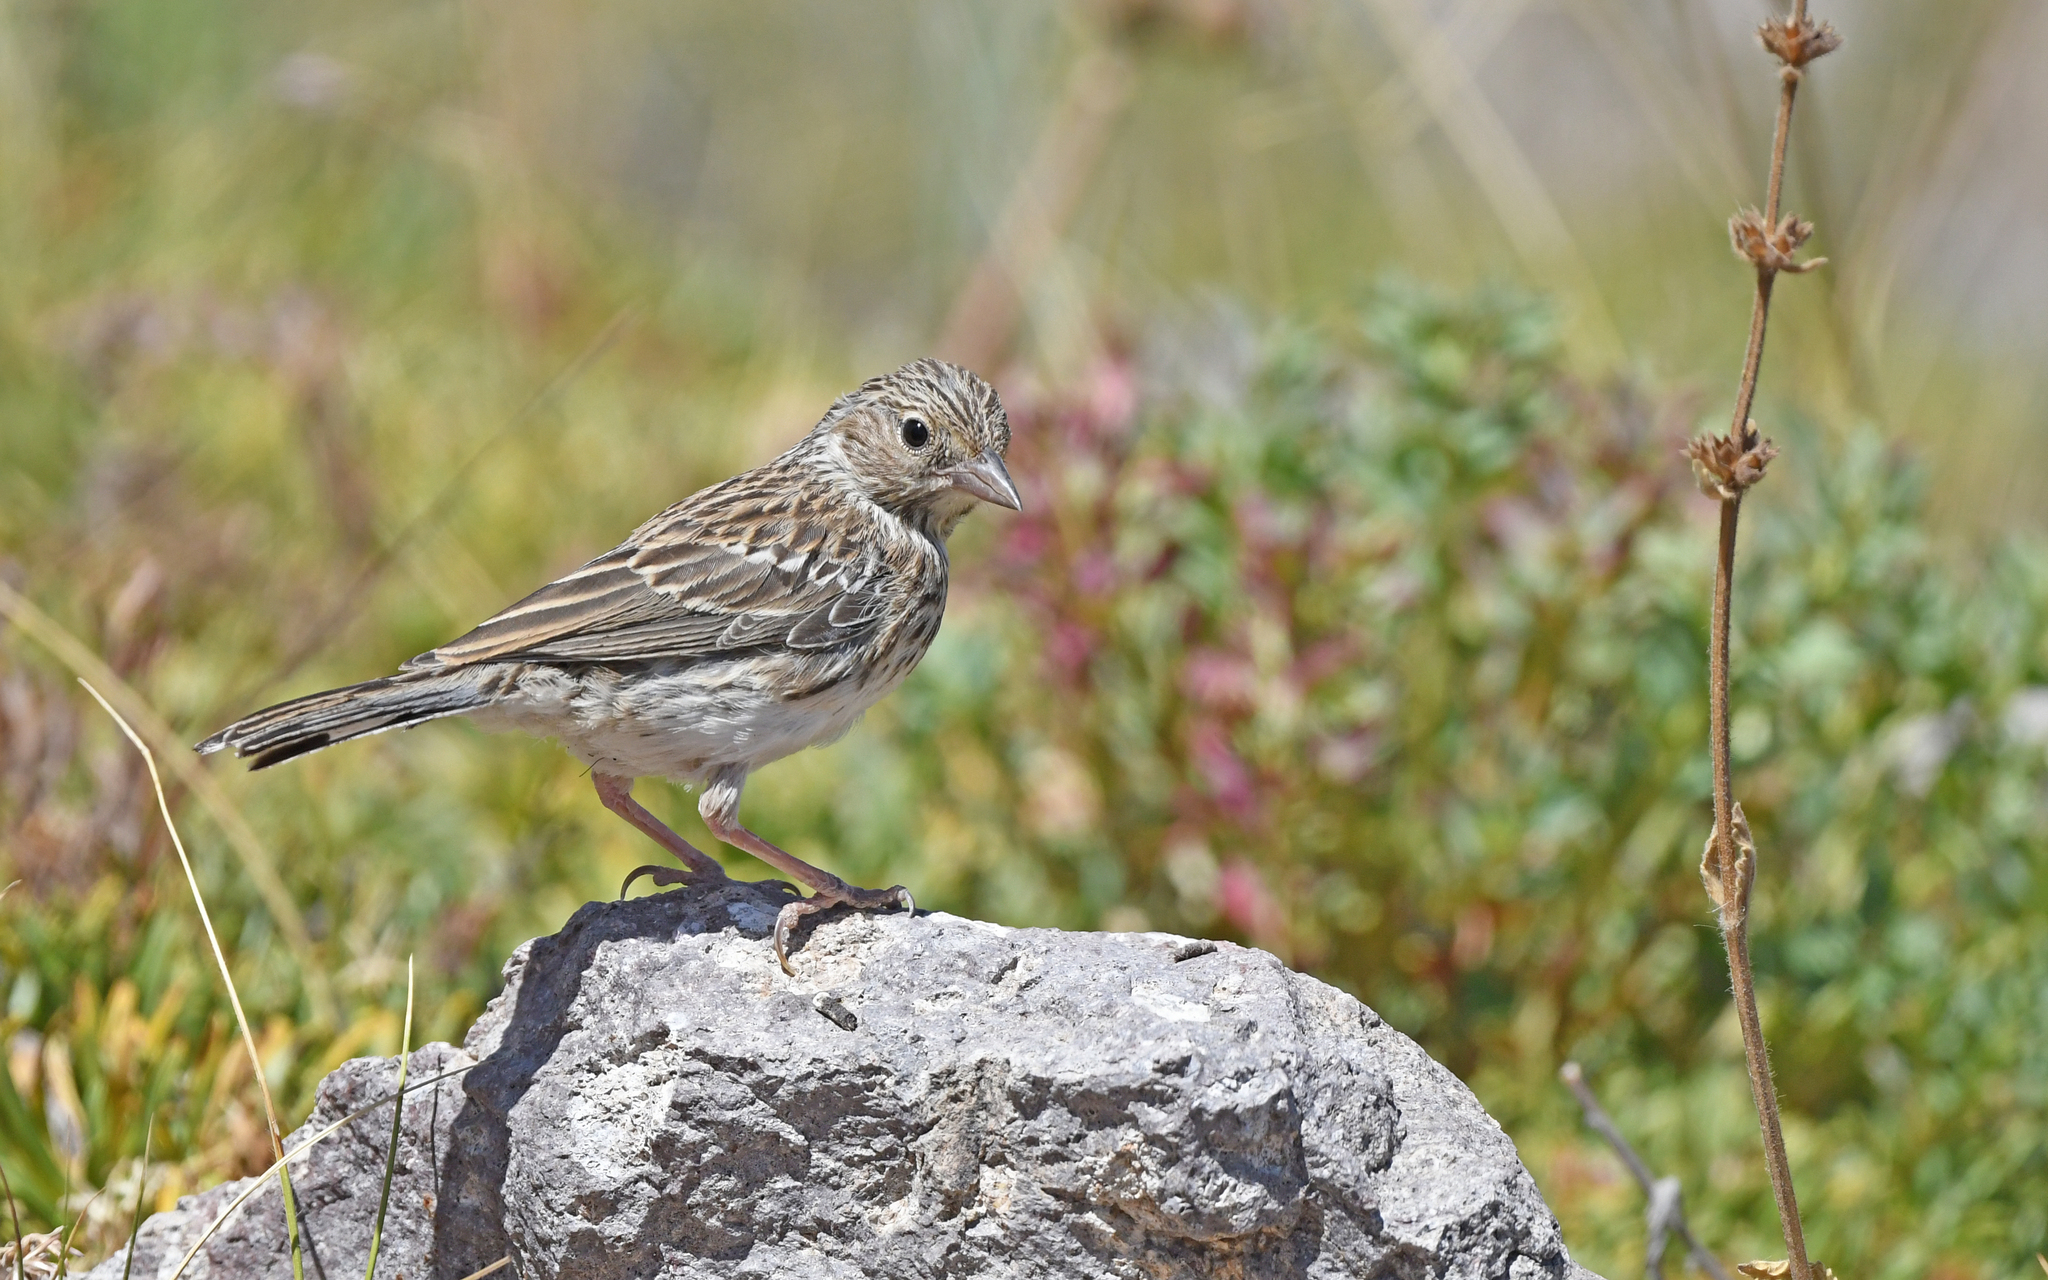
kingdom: Animalia
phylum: Chordata
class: Aves
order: Passeriformes
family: Thraupidae
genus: Porphyrospiza
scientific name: Porphyrospiza alaudina
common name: Band-tailed sierra finch
